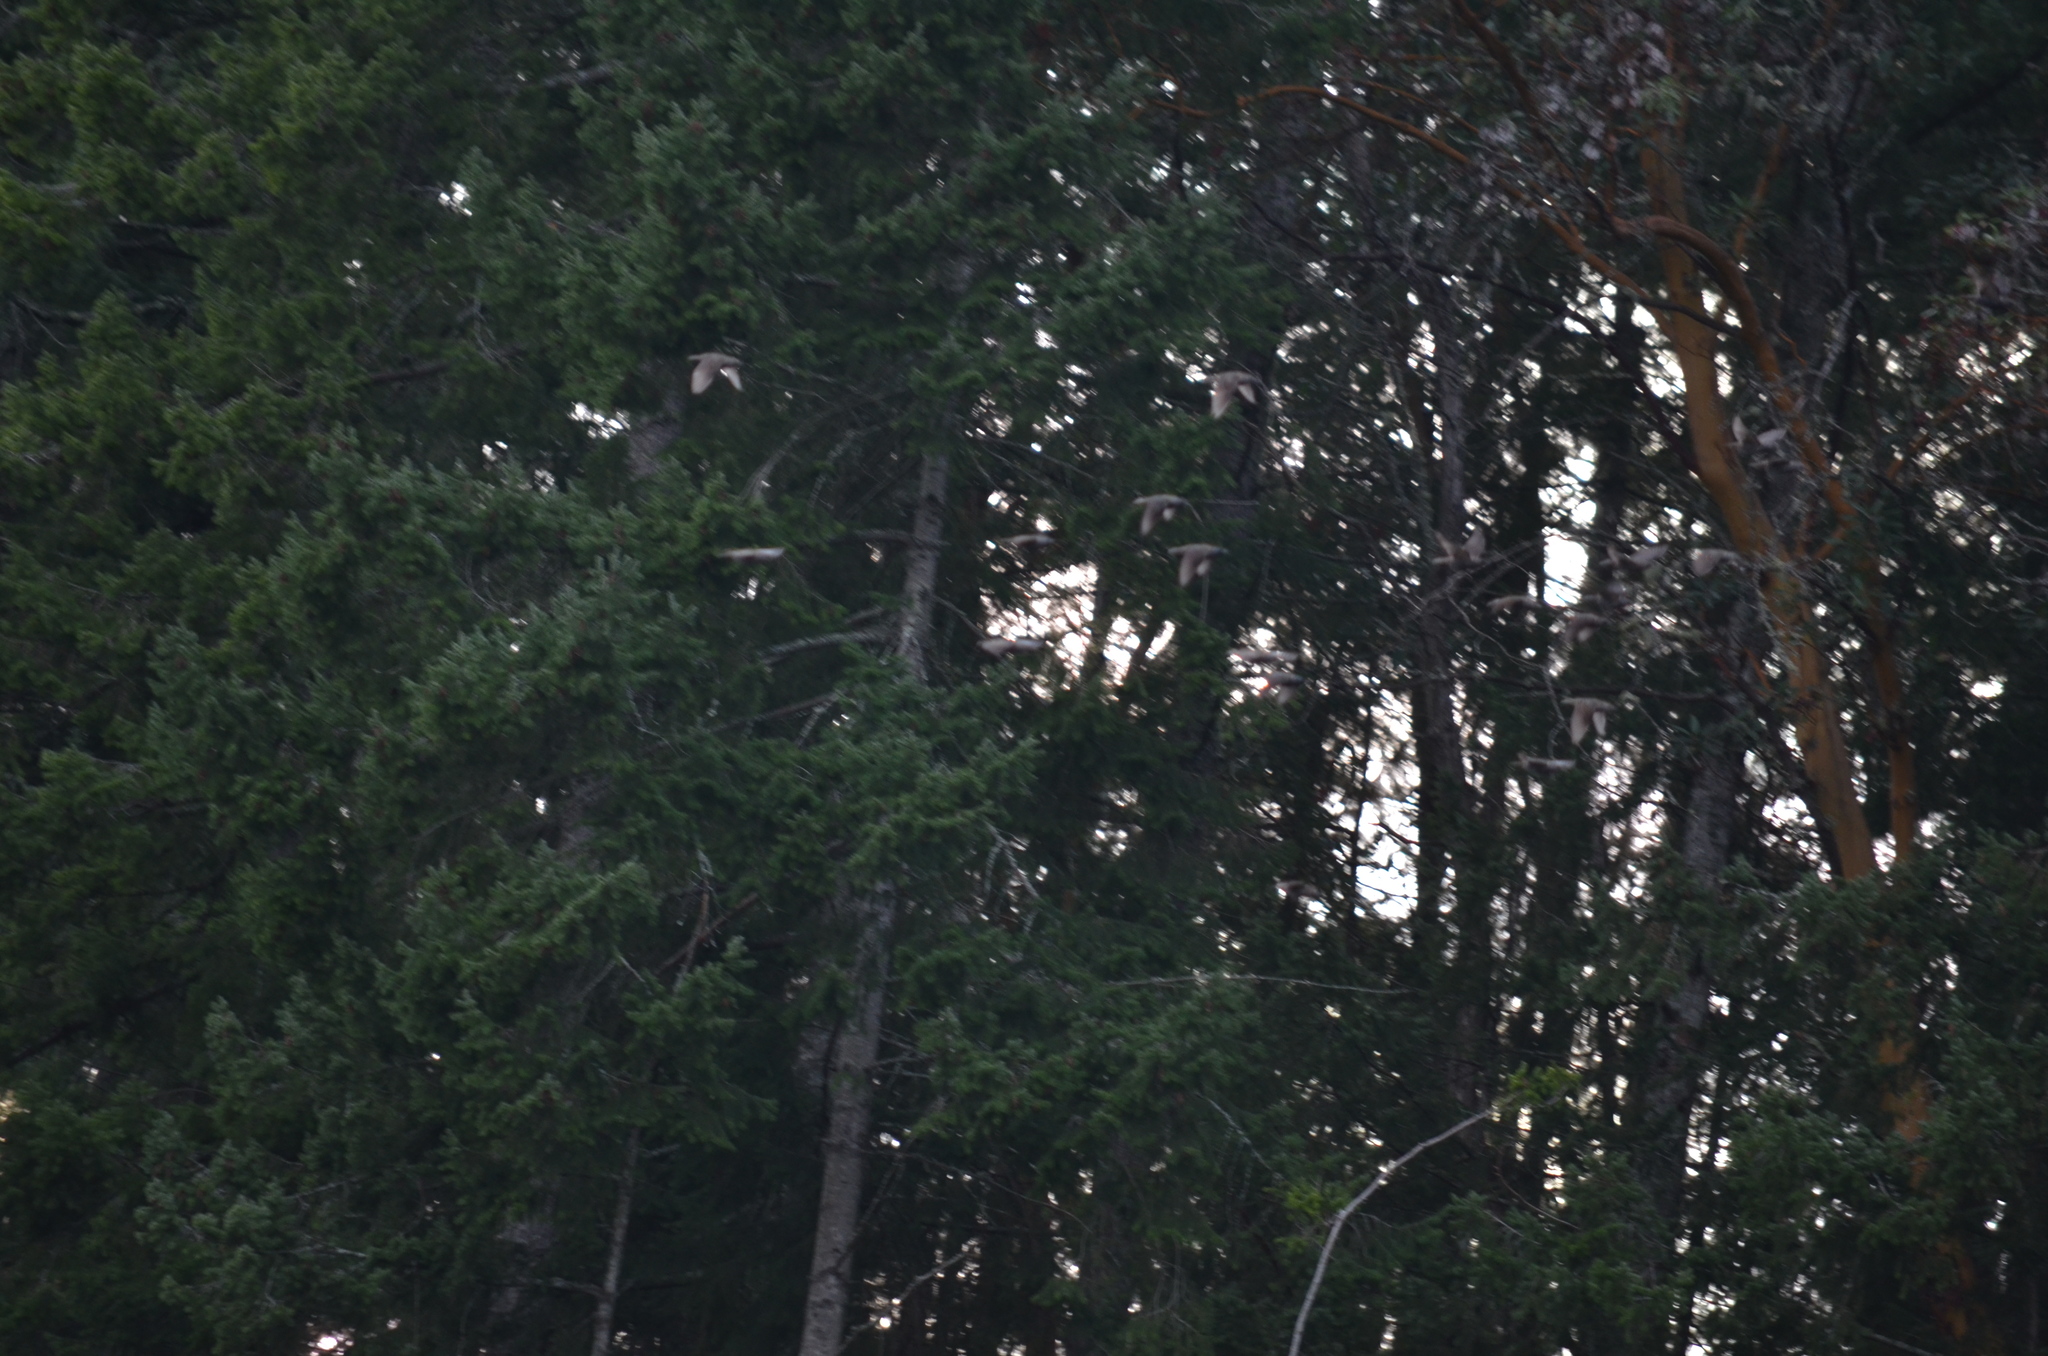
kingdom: Animalia
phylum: Chordata
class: Aves
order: Passeriformes
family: Sturnidae
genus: Sturnus
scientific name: Sturnus vulgaris
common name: Common starling
